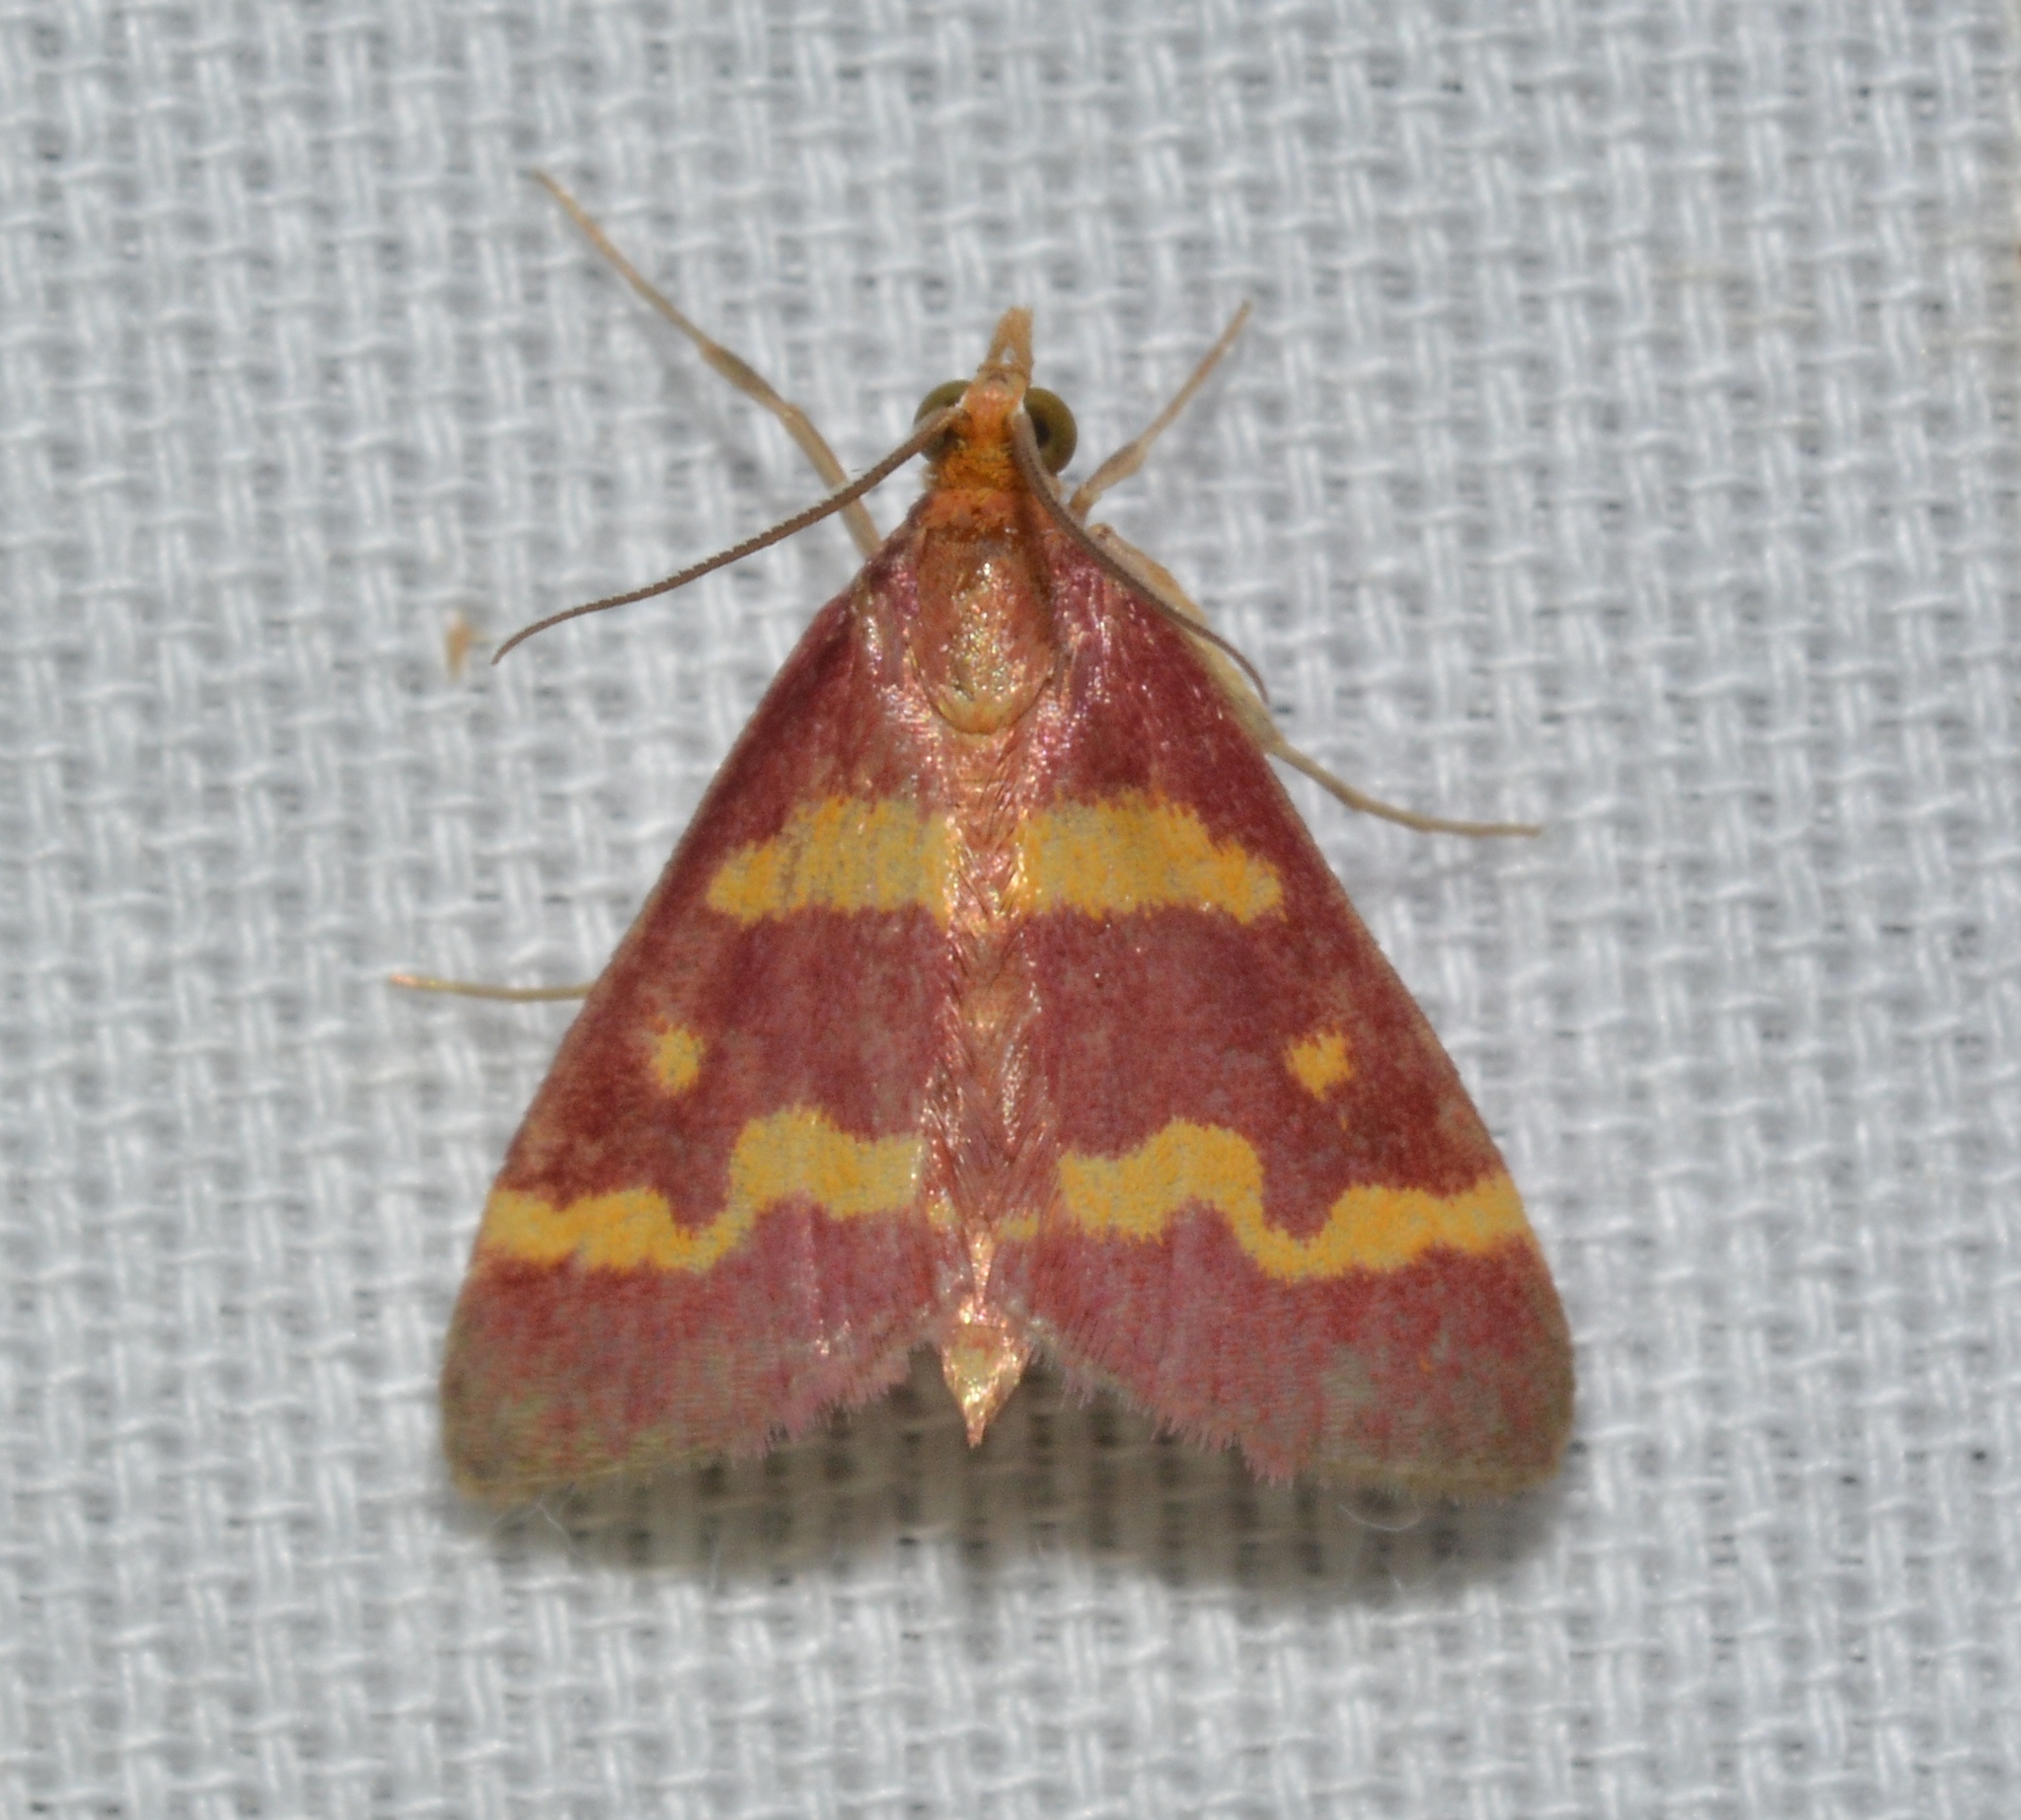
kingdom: Animalia
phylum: Arthropoda
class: Insecta
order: Lepidoptera
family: Crambidae
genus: Pyrausta
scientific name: Pyrausta tyralis
